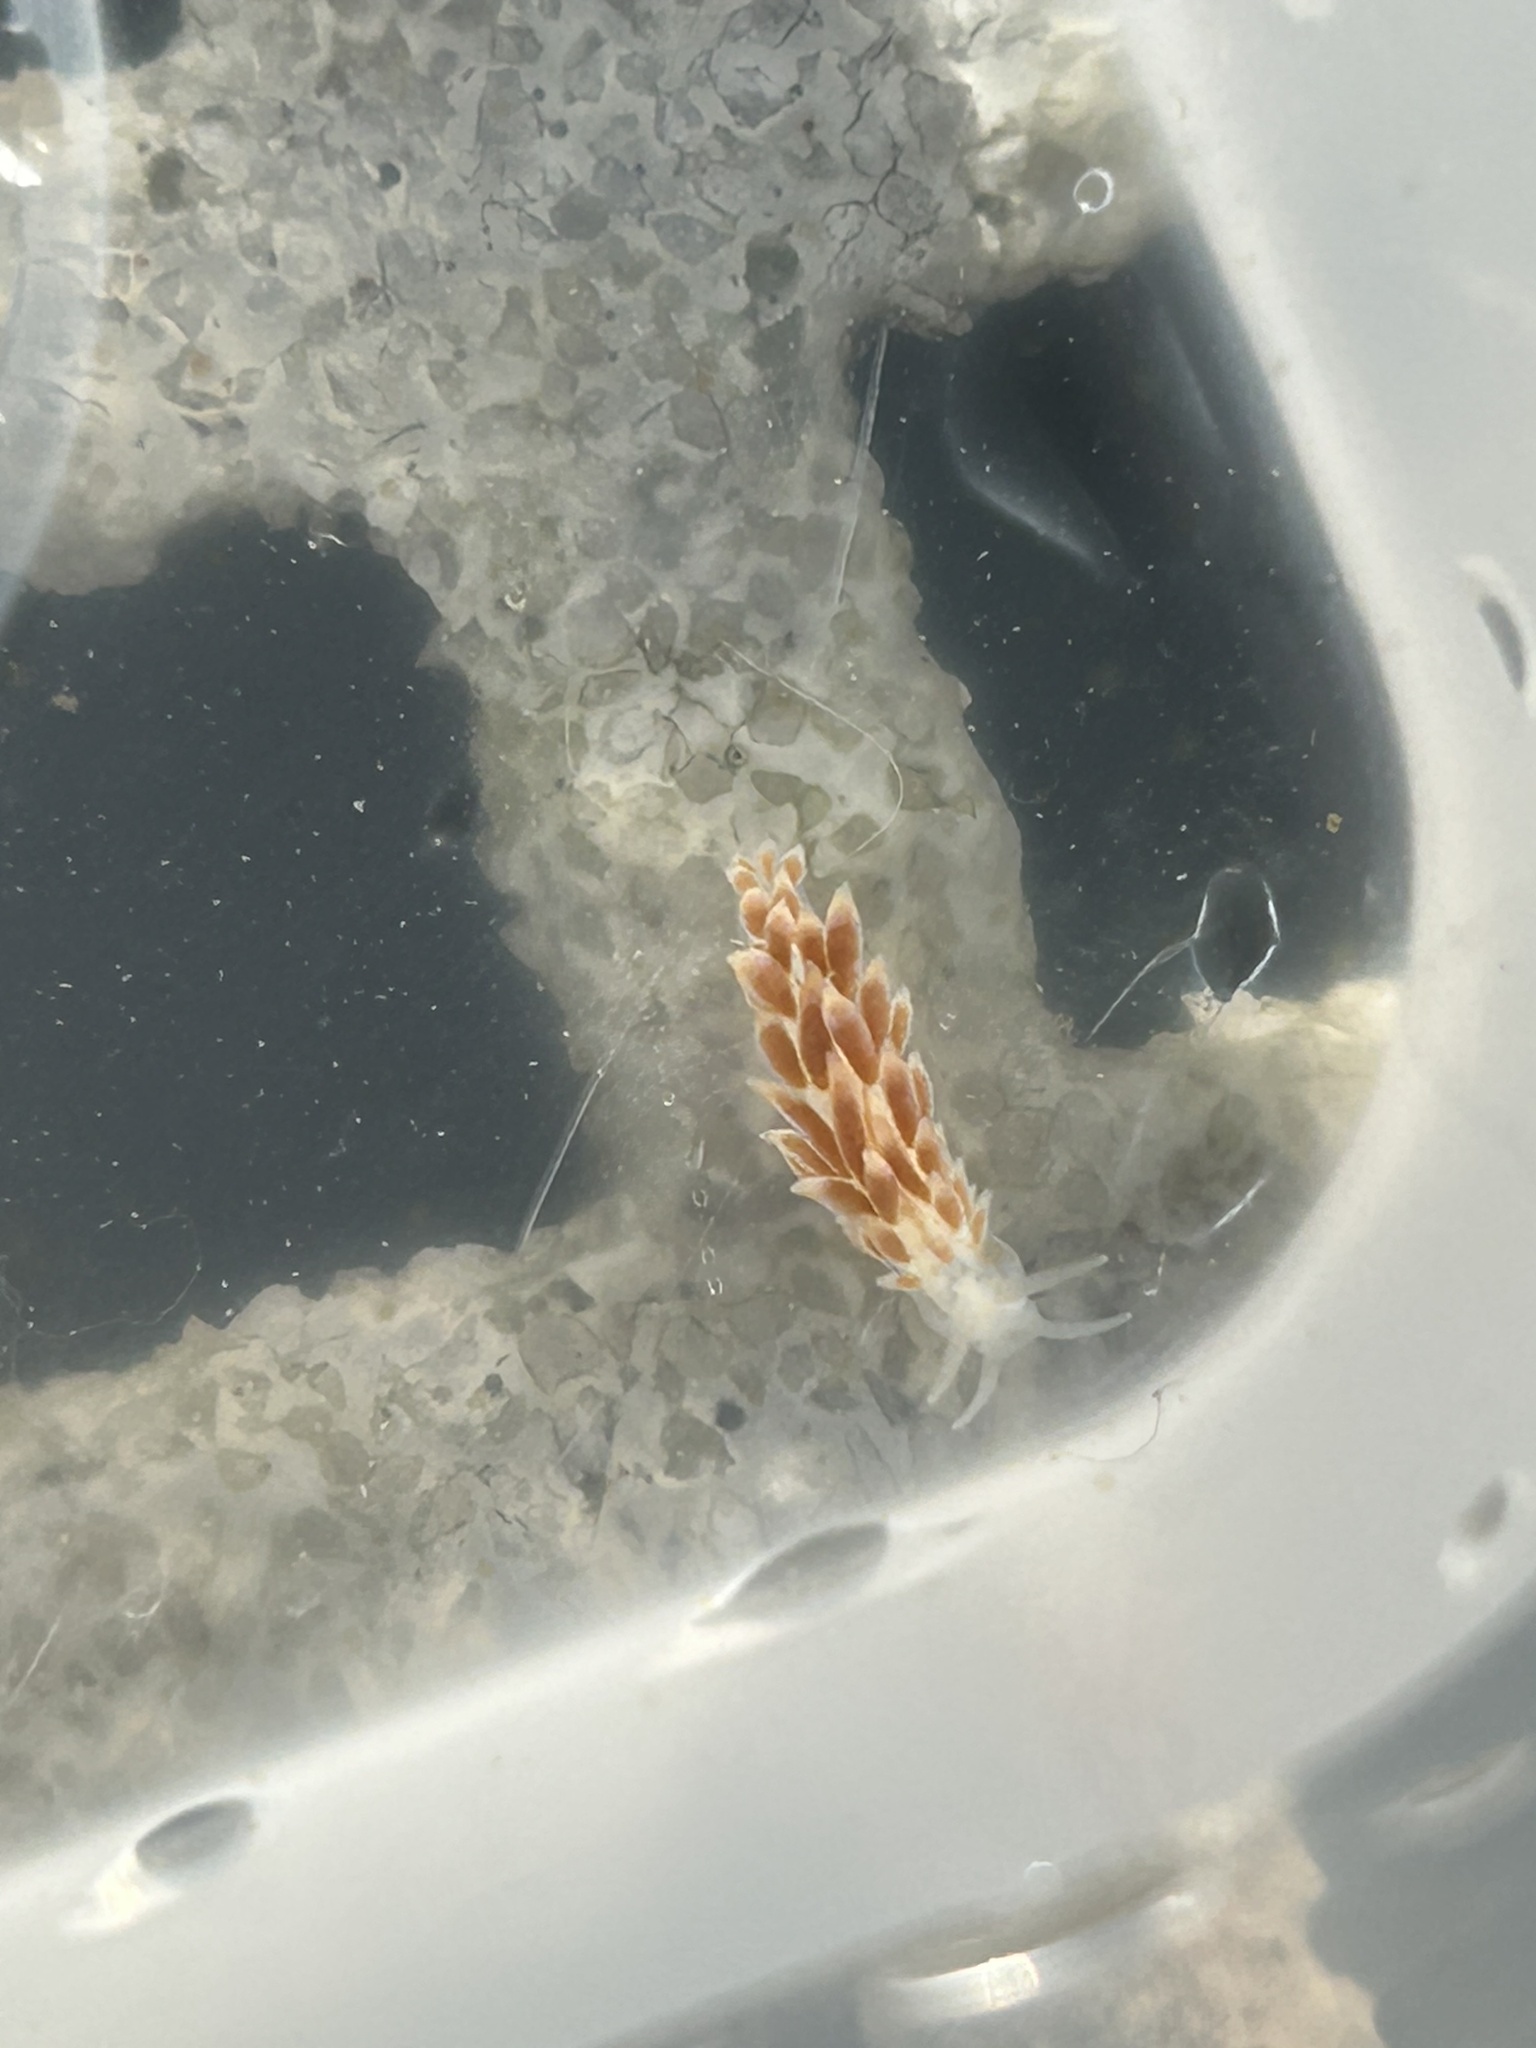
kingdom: Animalia
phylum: Mollusca
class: Gastropoda
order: Nudibranchia
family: Trinchesiidae
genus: Catriona
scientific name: Catriona aurantia
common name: Corange-tip cuthona
